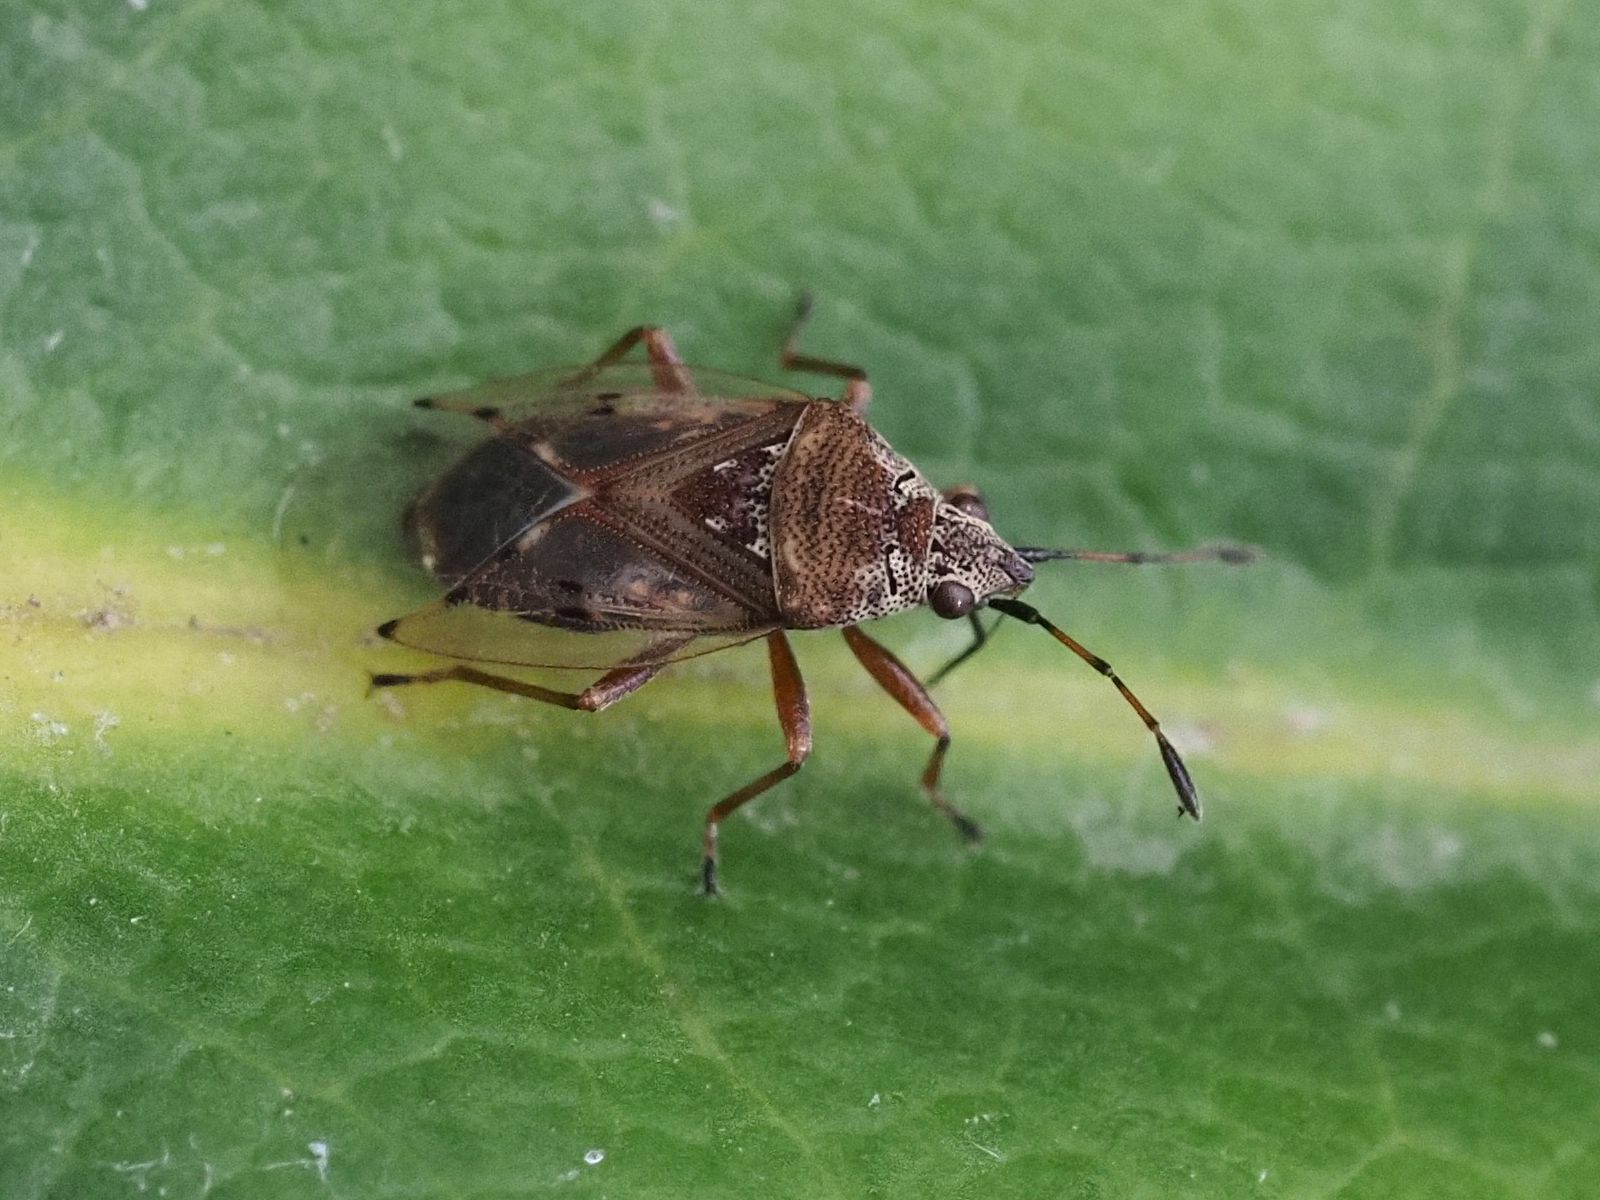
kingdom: Animalia
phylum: Arthropoda
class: Insecta
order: Hemiptera
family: Lygaeidae
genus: Kleidocerys
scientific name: Kleidocerys resedae
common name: Birch catkin bug
